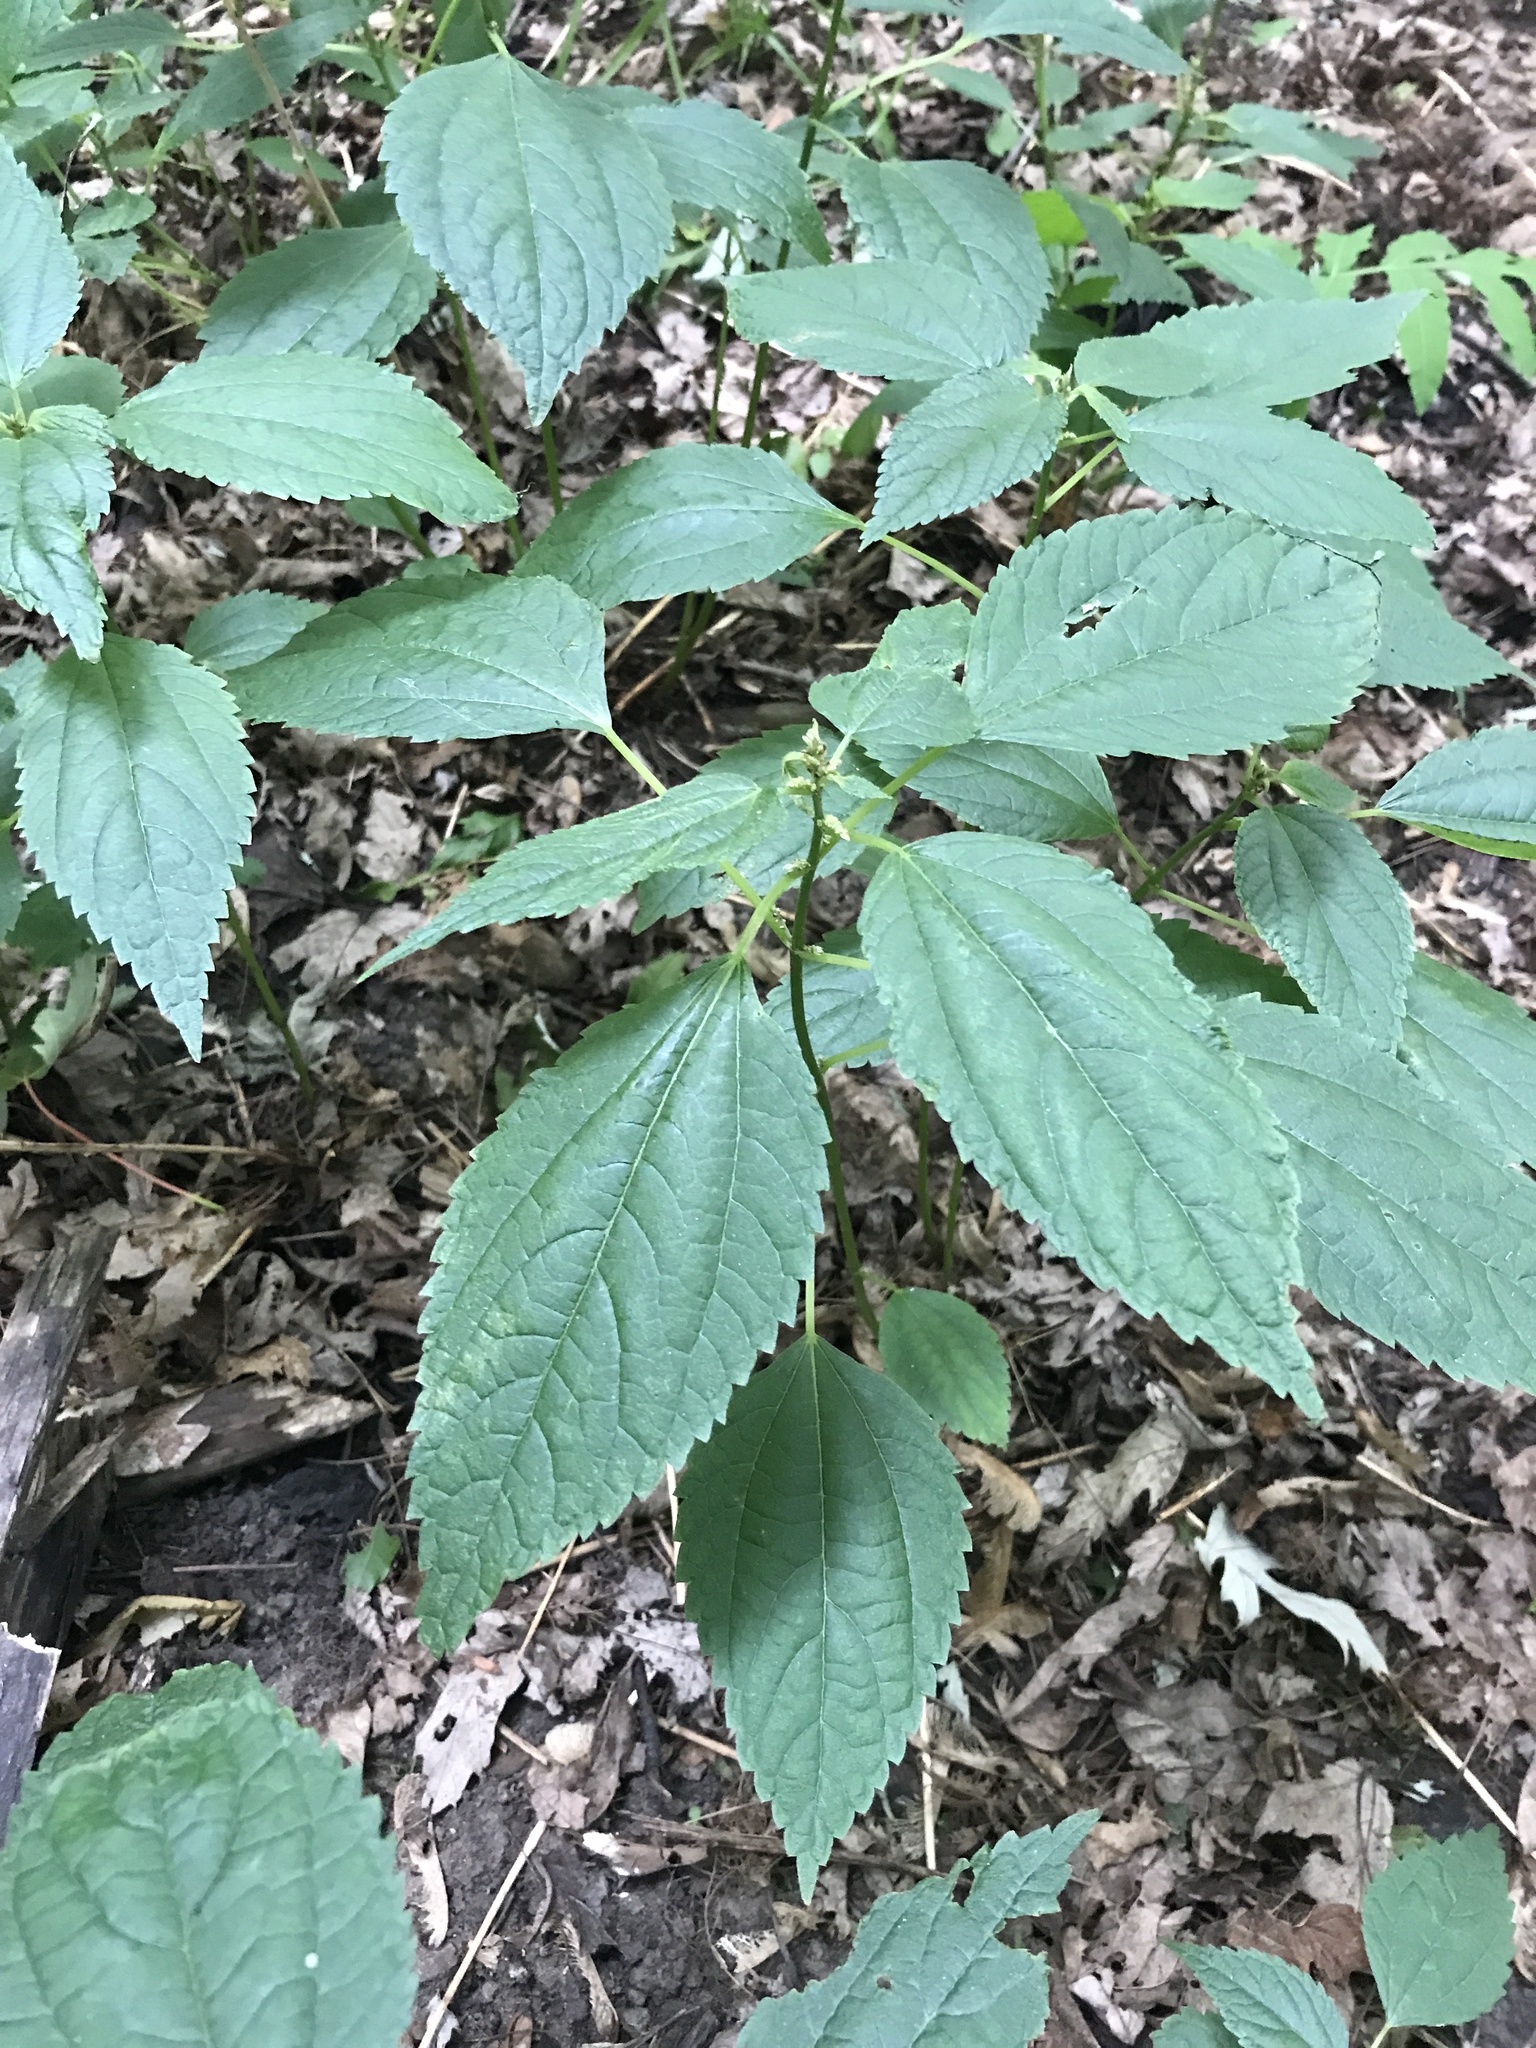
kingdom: Plantae
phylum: Tracheophyta
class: Magnoliopsida
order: Rosales
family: Urticaceae
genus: Boehmeria
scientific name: Boehmeria cylindrica
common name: Bog-hemp
